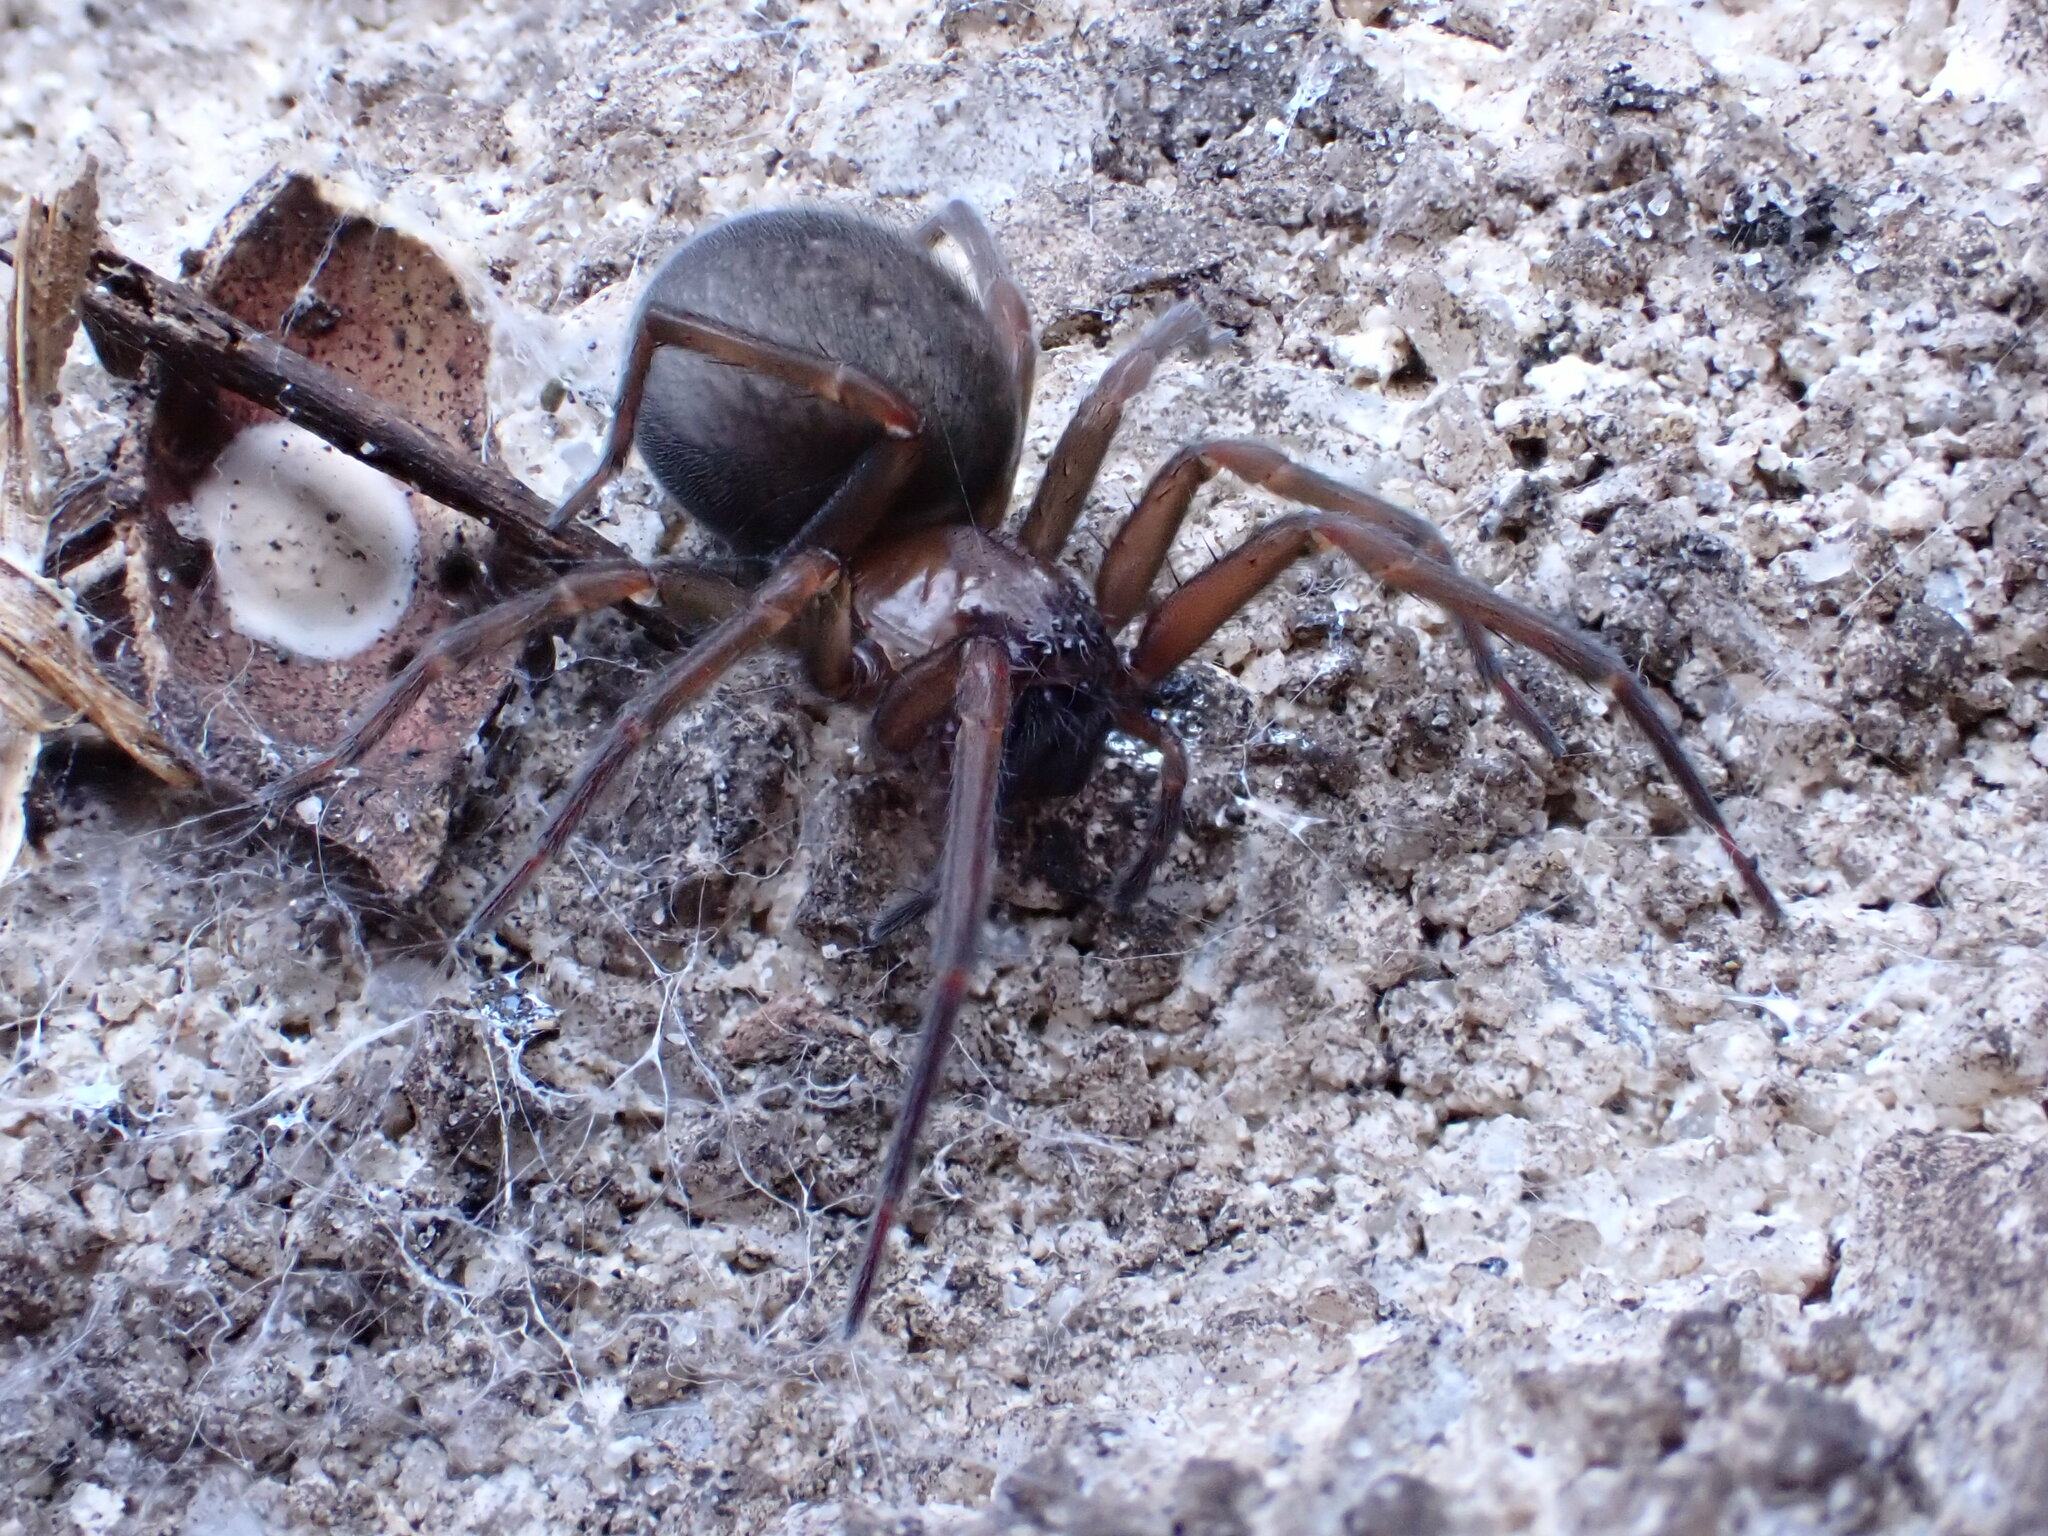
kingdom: Animalia
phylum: Arthropoda
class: Arachnida
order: Araneae
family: Desidae
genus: Metaltella
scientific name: Metaltella simoni
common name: Cribellate spider
